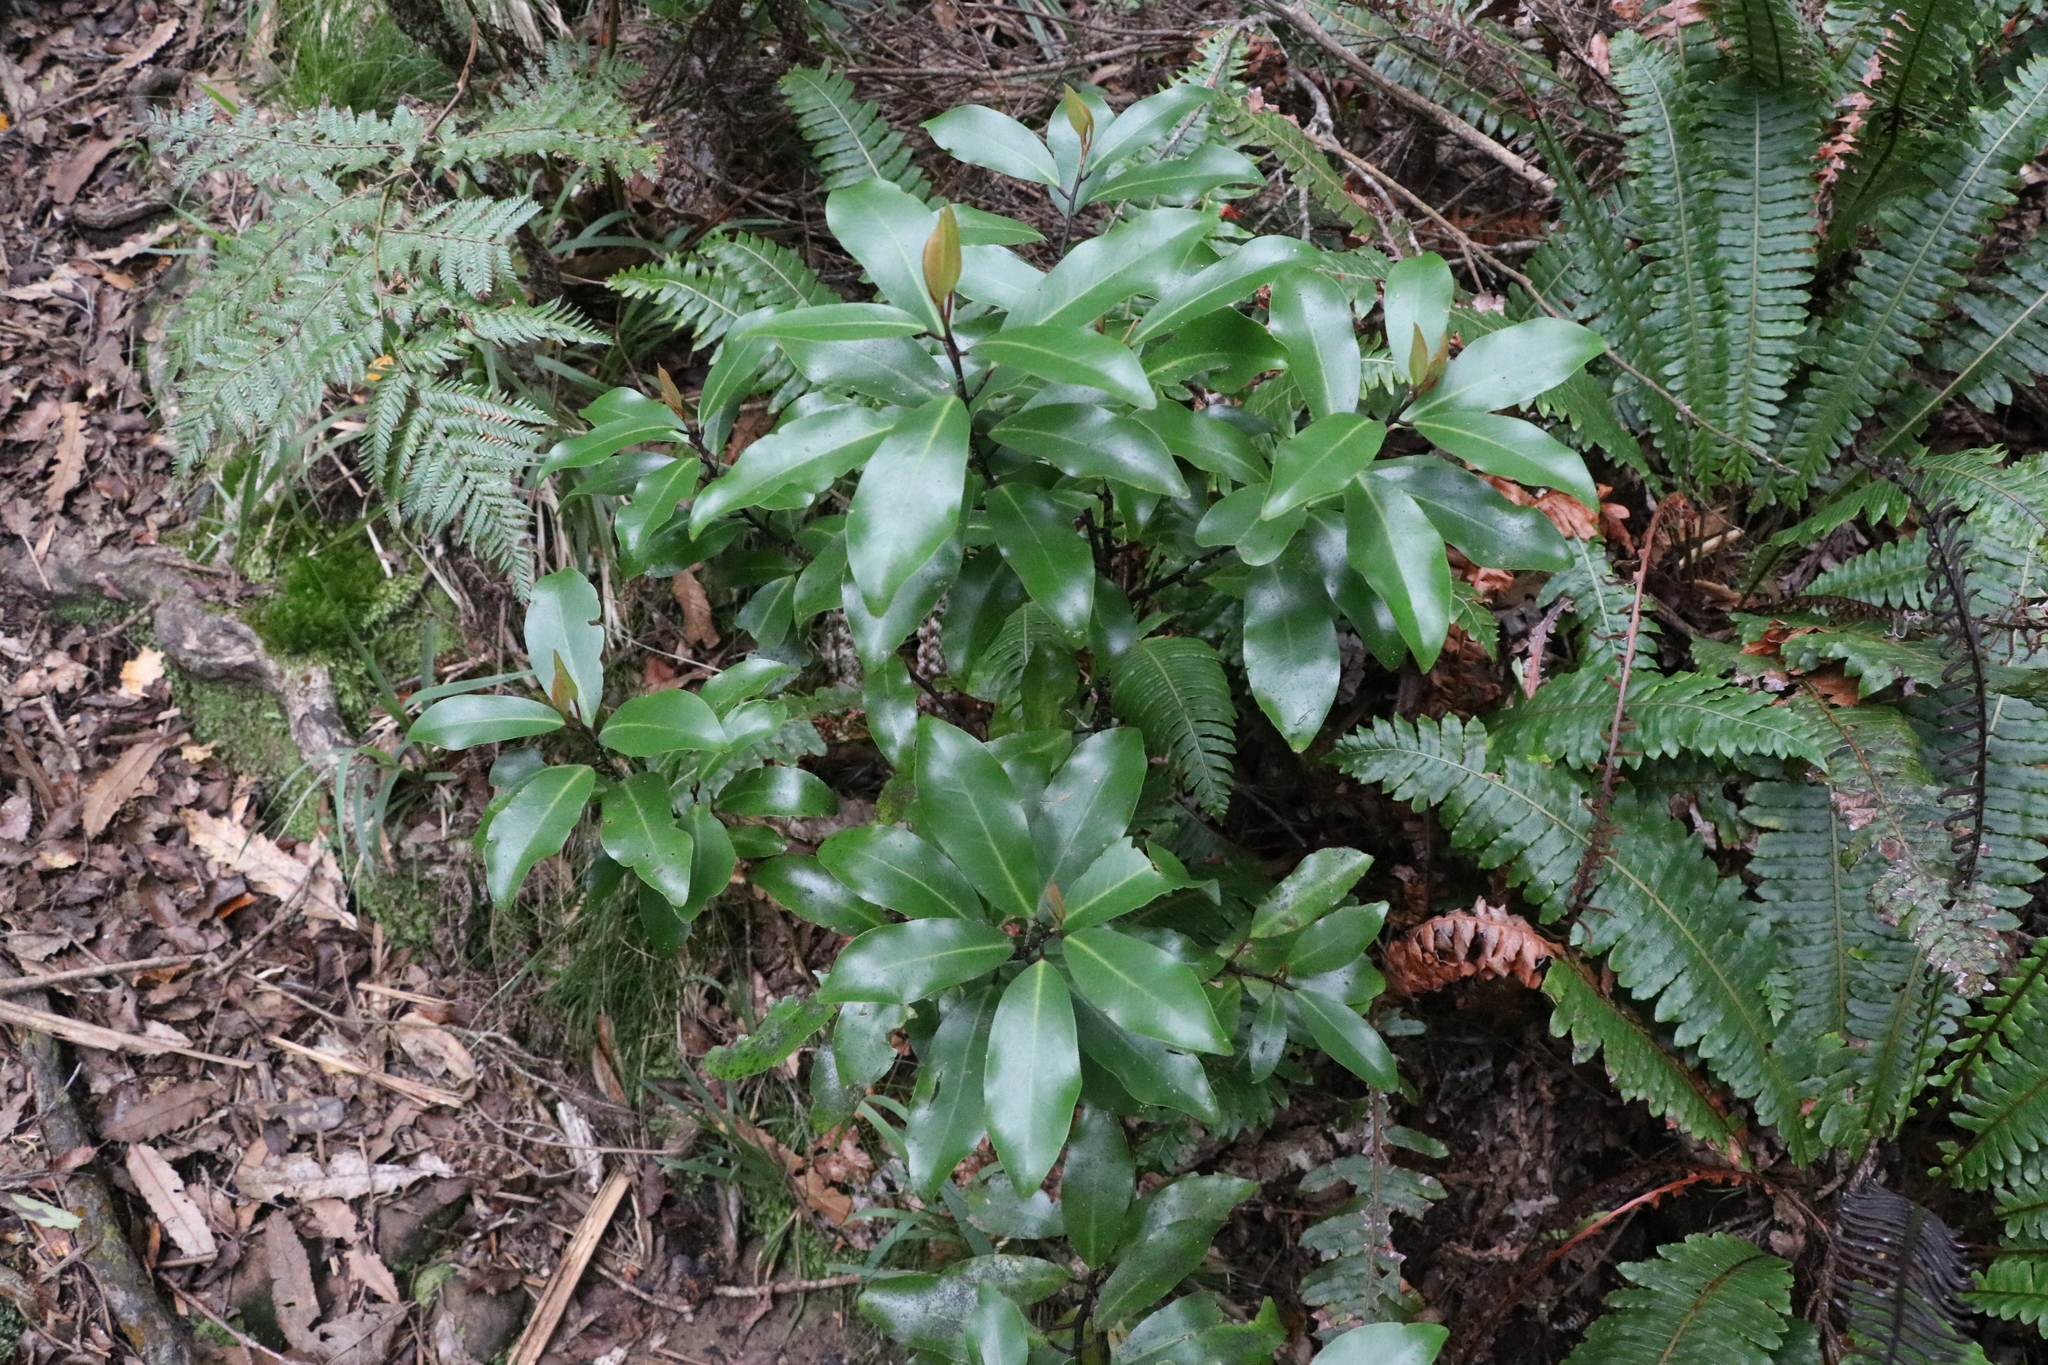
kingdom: Plantae
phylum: Tracheophyta
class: Magnoliopsida
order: Canellales
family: Winteraceae
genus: Pseudowintera
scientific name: Pseudowintera axillaris
